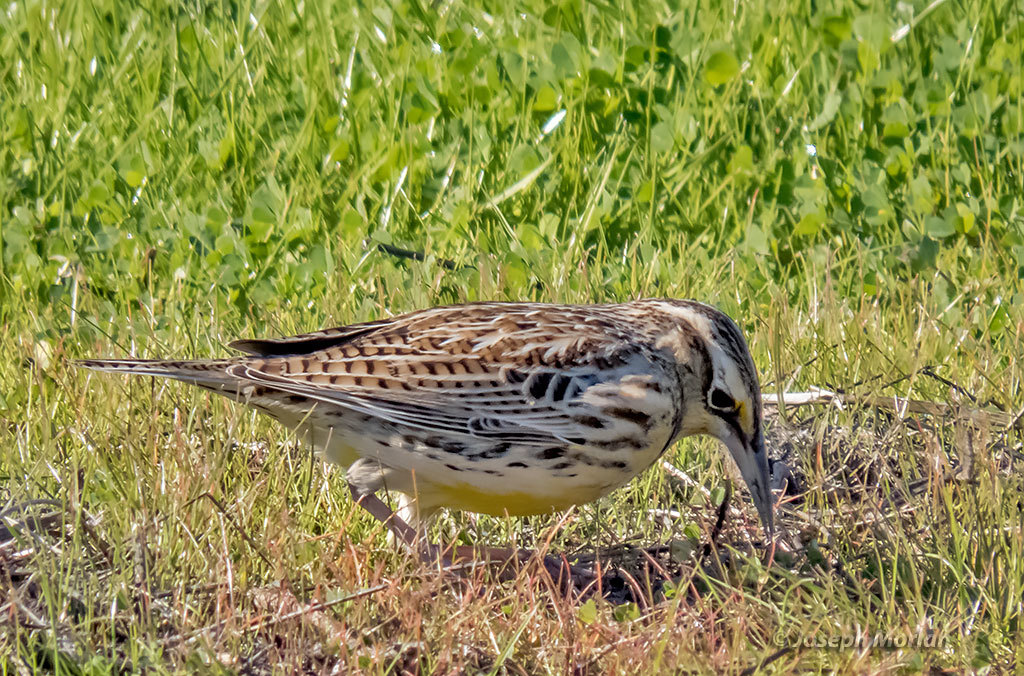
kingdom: Animalia
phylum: Chordata
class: Aves
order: Passeriformes
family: Icteridae
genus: Sturnella
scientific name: Sturnella neglecta
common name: Western meadowlark
